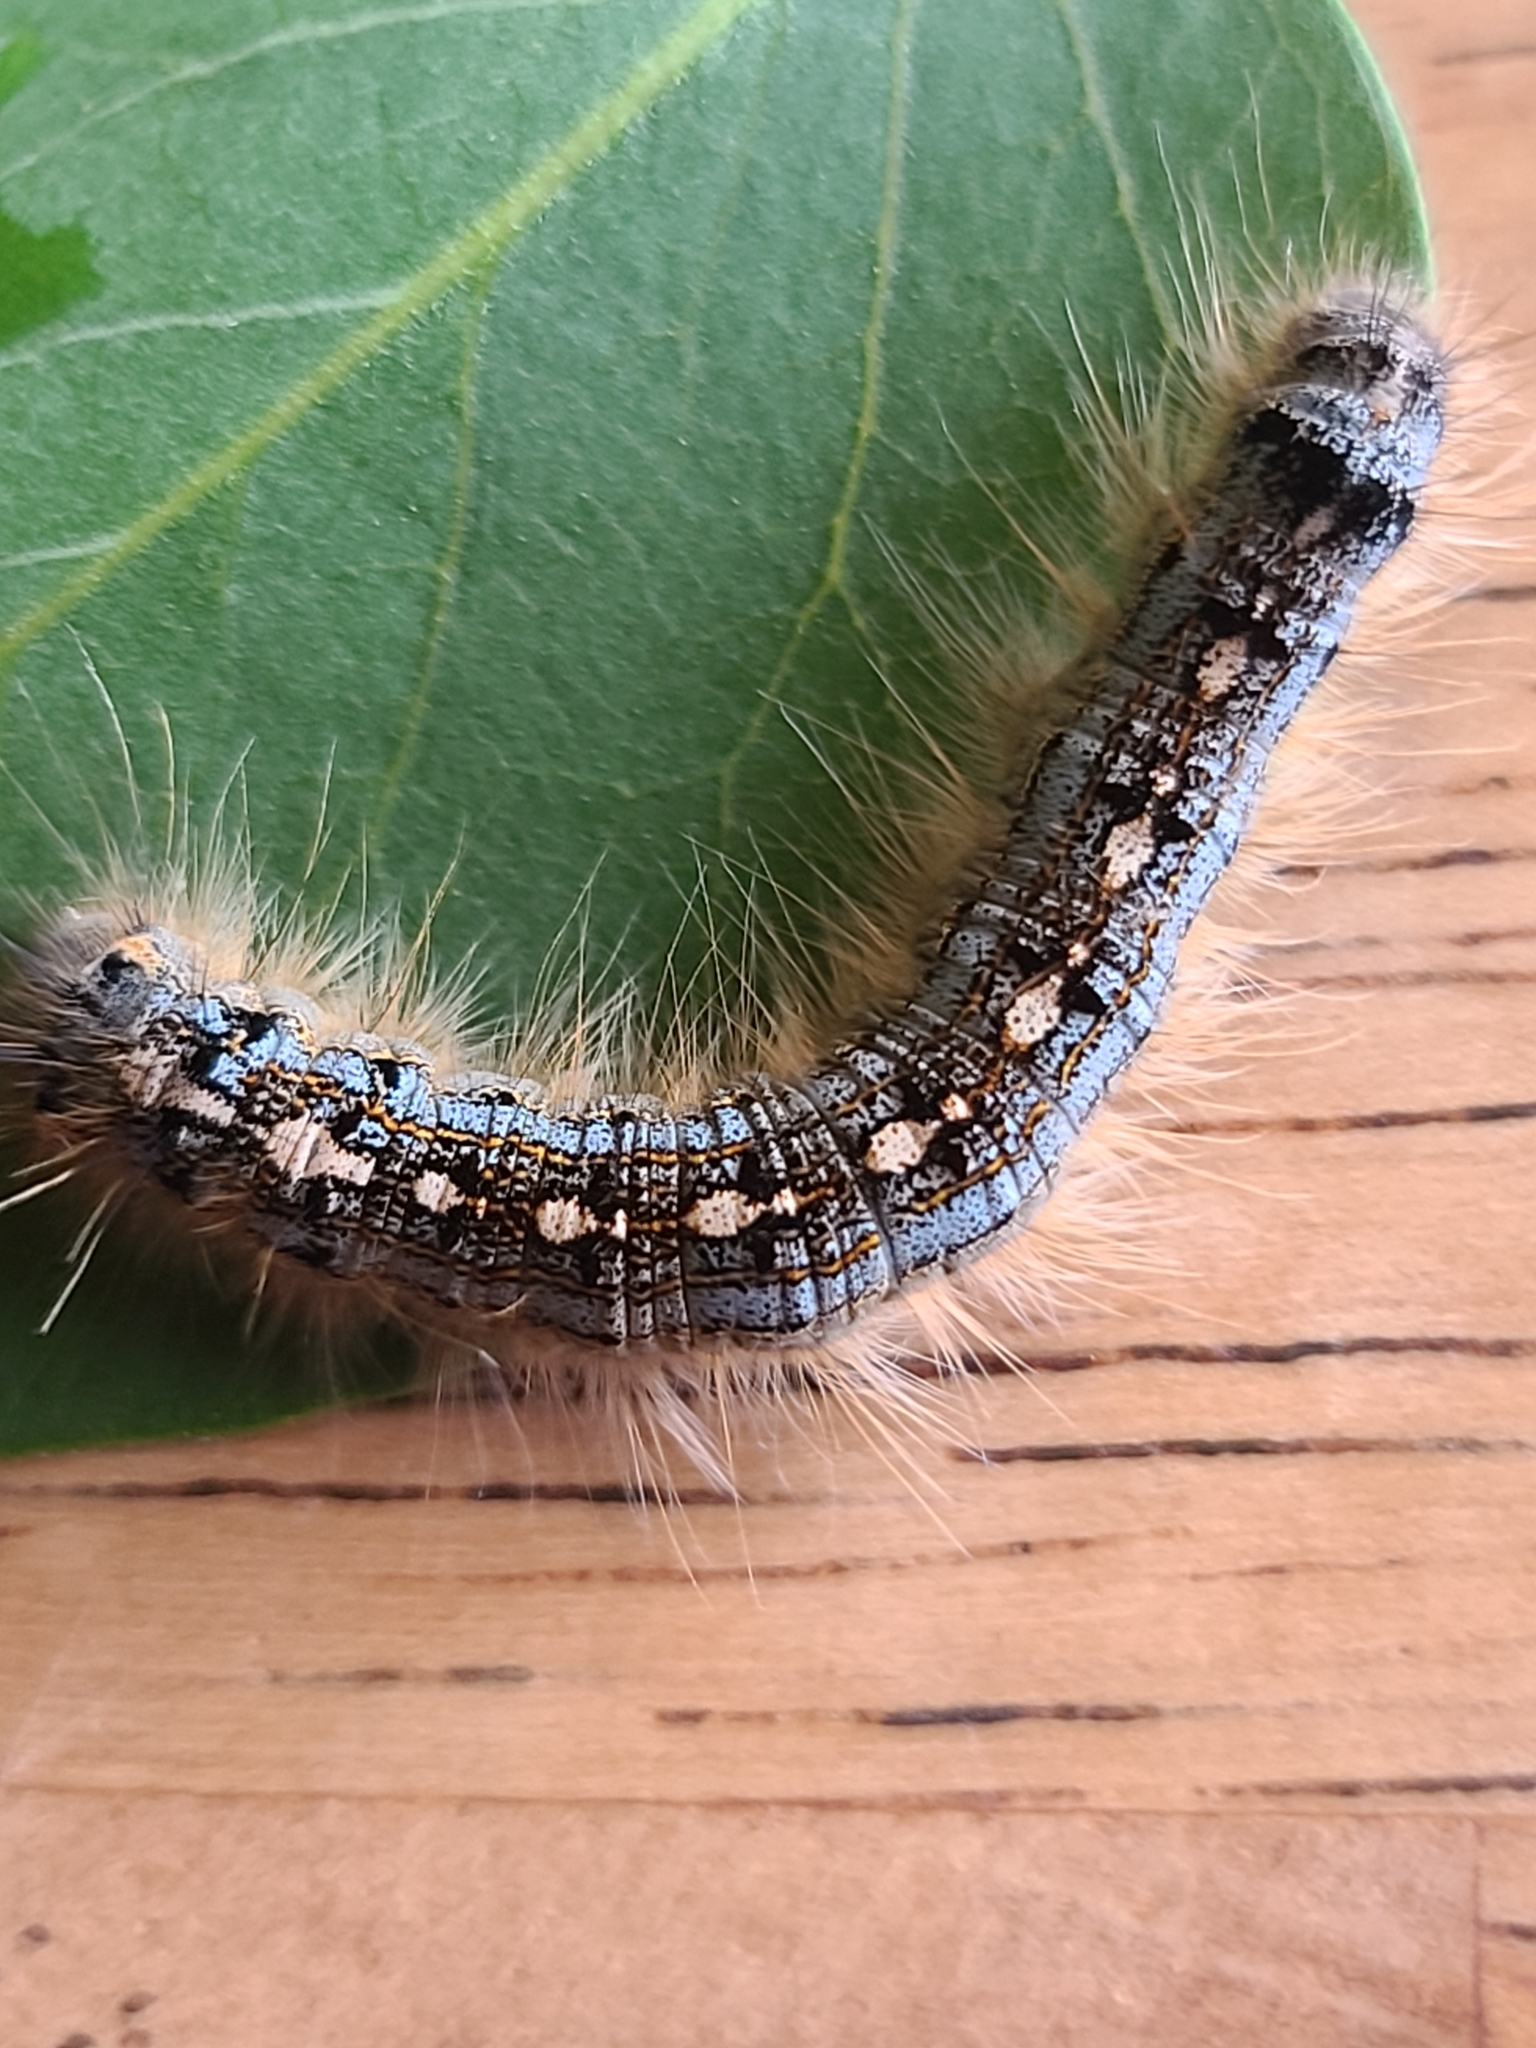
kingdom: Animalia
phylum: Arthropoda
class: Insecta
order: Lepidoptera
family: Lasiocampidae
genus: Malacosoma
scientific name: Malacosoma disstria
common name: Forest tent caterpillar
